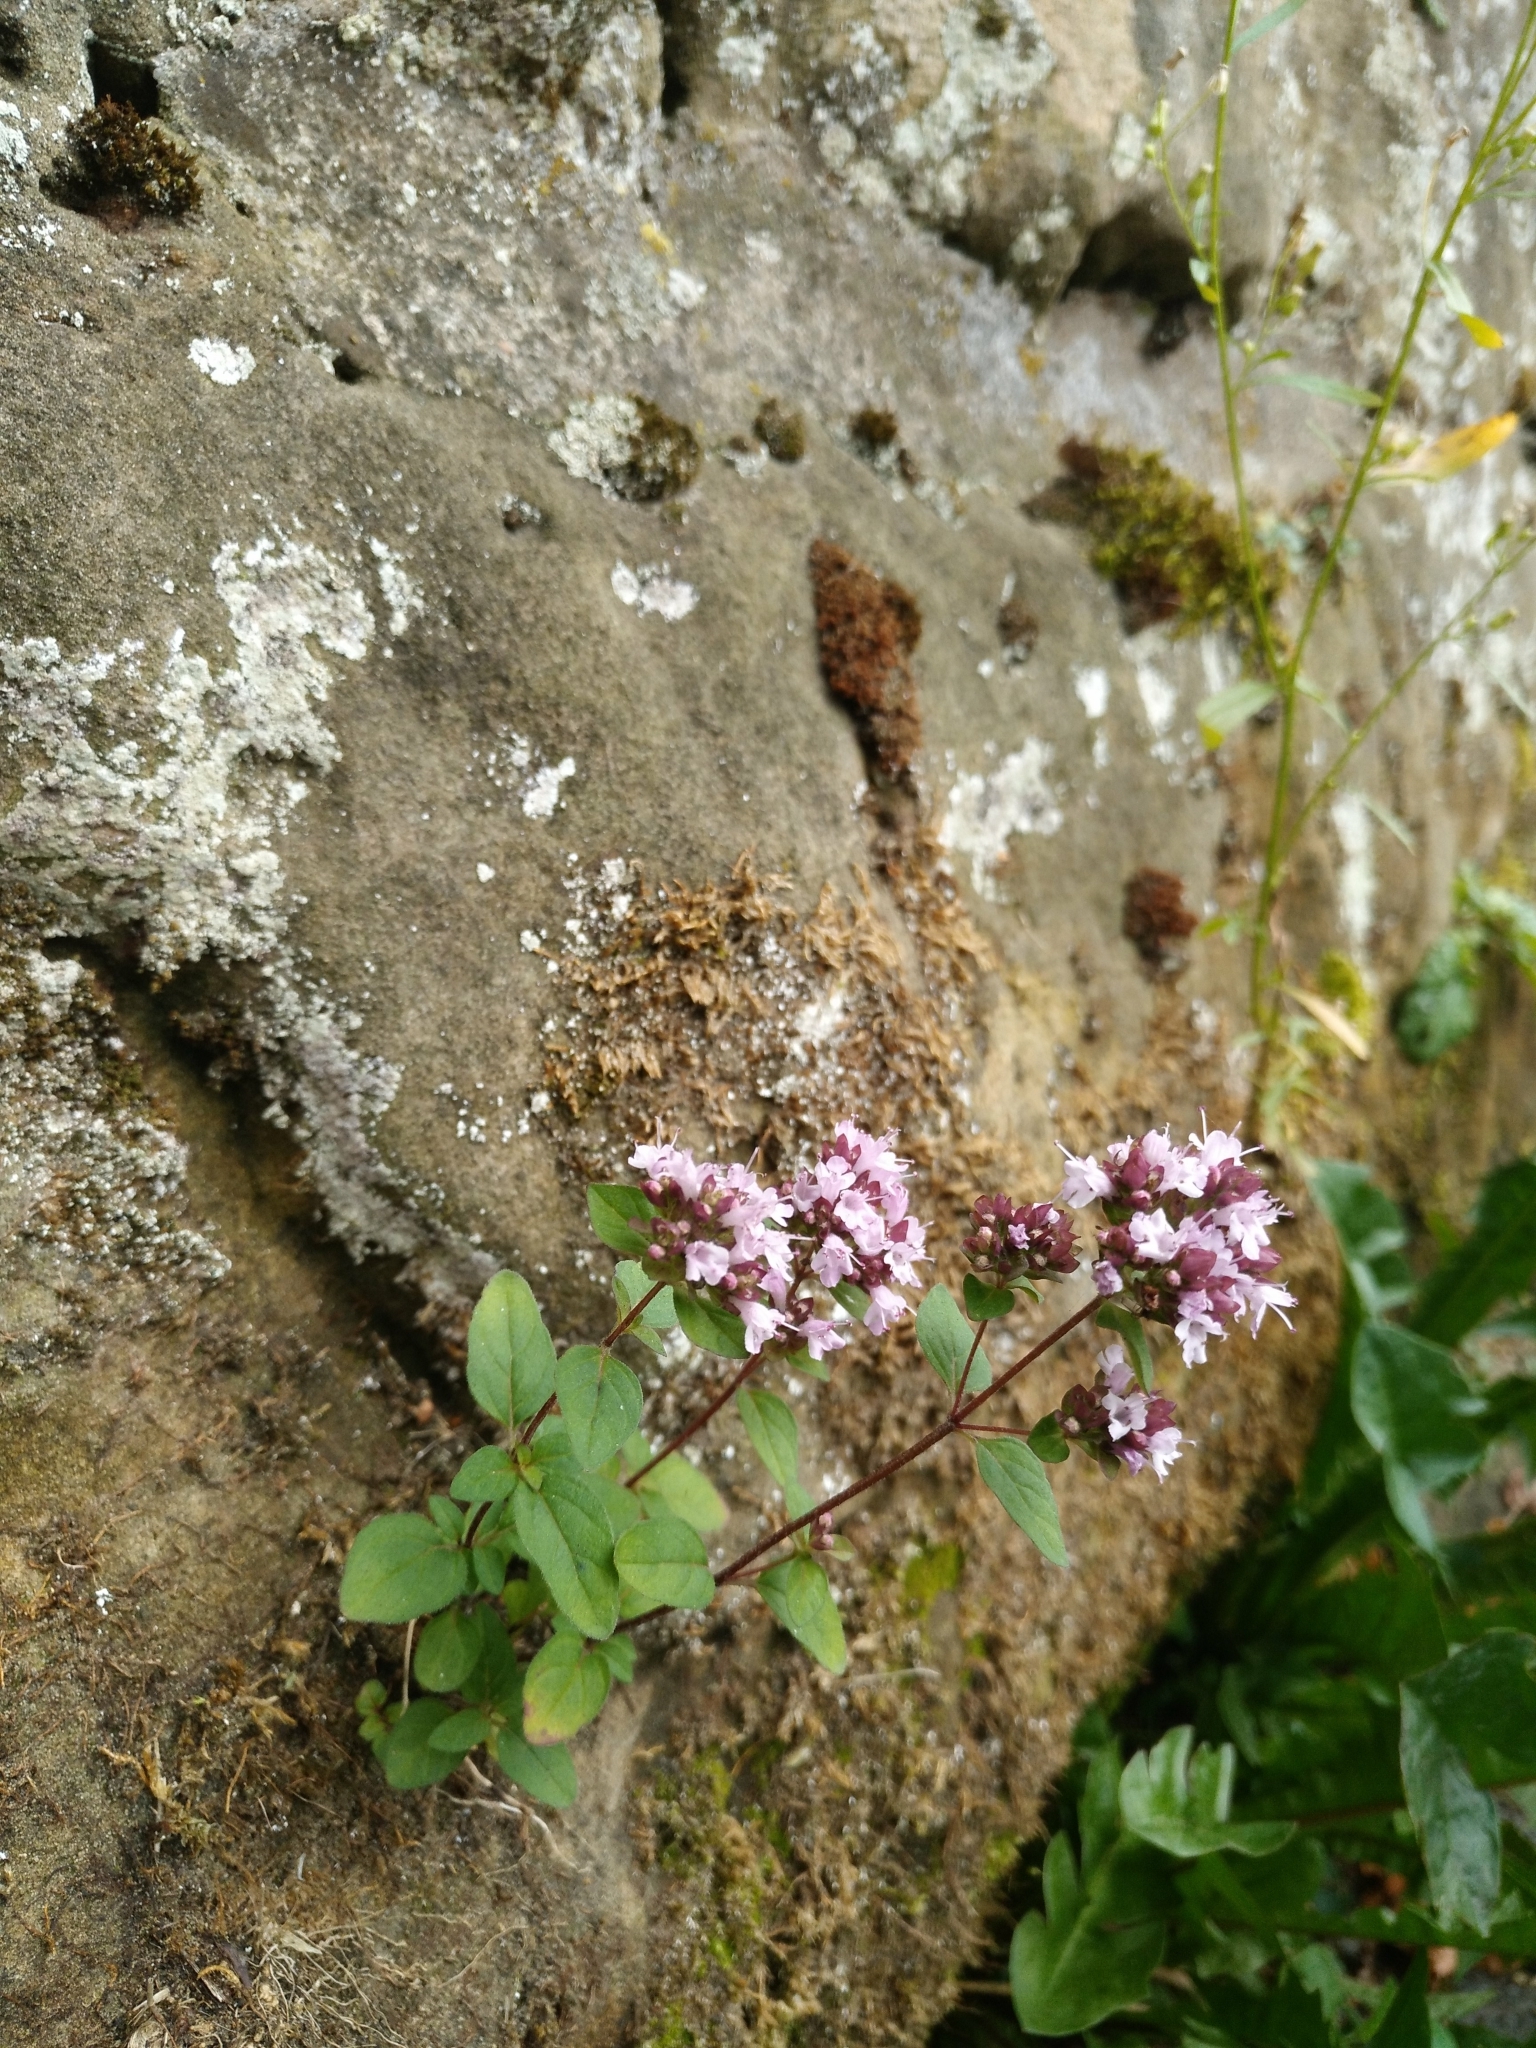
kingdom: Plantae
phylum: Tracheophyta
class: Magnoliopsida
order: Lamiales
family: Lamiaceae
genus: Origanum
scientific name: Origanum vulgare
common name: Wild marjoram
